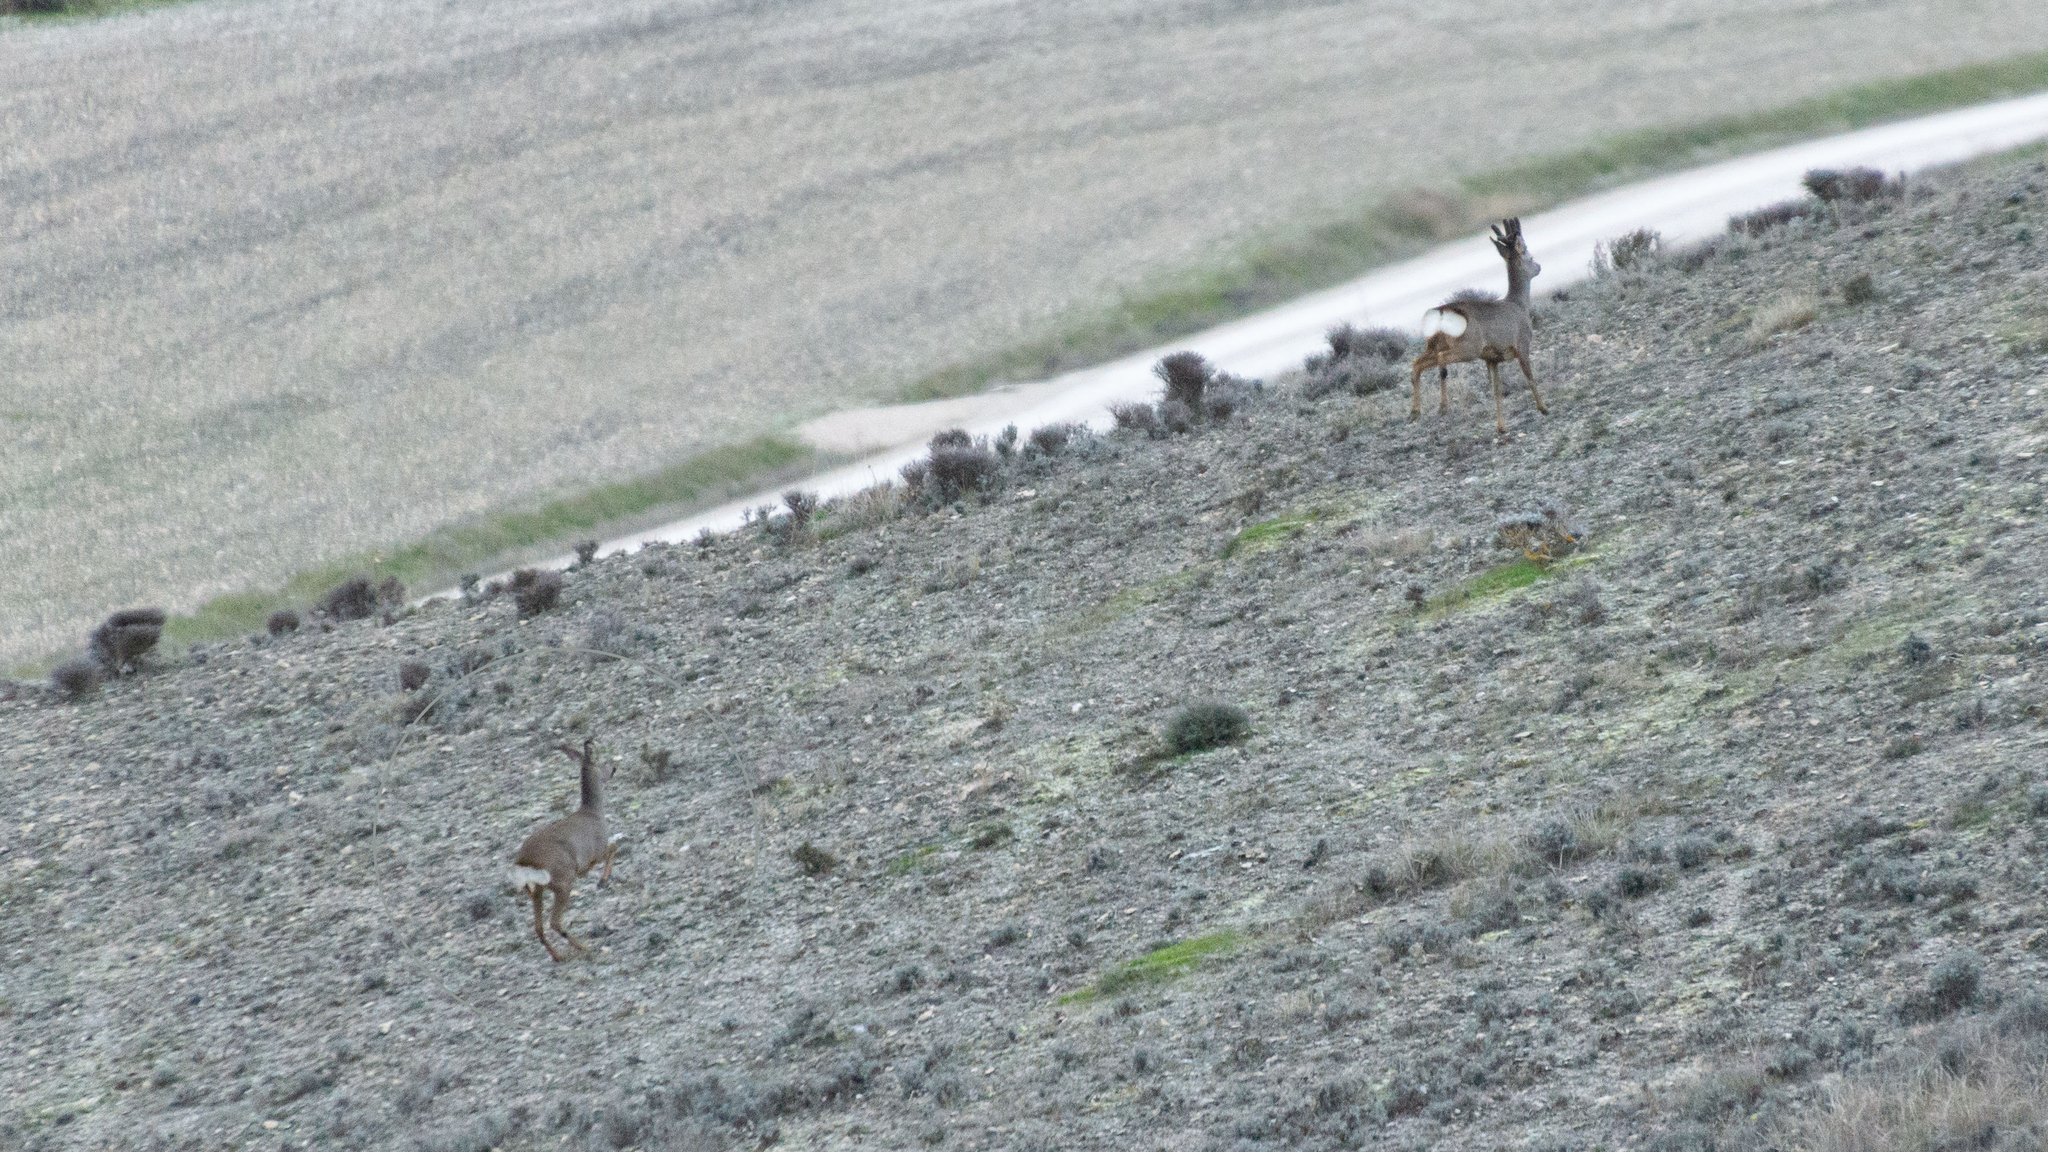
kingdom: Animalia
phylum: Chordata
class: Mammalia
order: Artiodactyla
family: Cervidae
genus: Capreolus
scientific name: Capreolus capreolus
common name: Western roe deer
